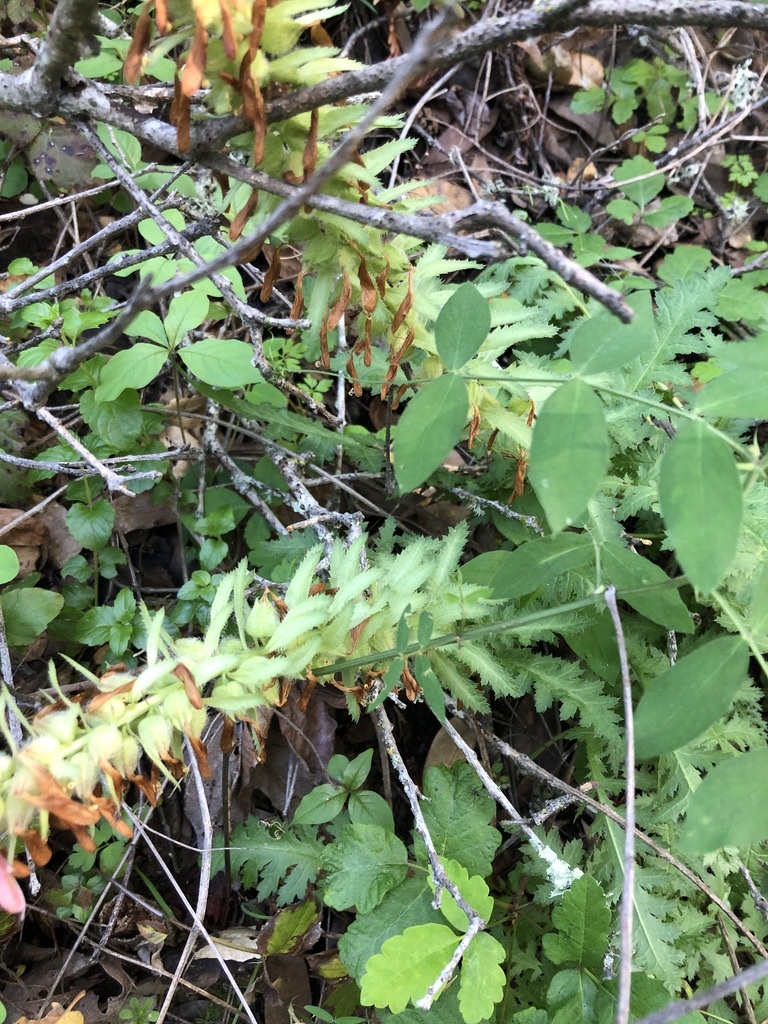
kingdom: Plantae
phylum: Tracheophyta
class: Magnoliopsida
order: Lamiales
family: Orobanchaceae
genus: Pedicularis
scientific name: Pedicularis densiflora
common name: Indian warrior
